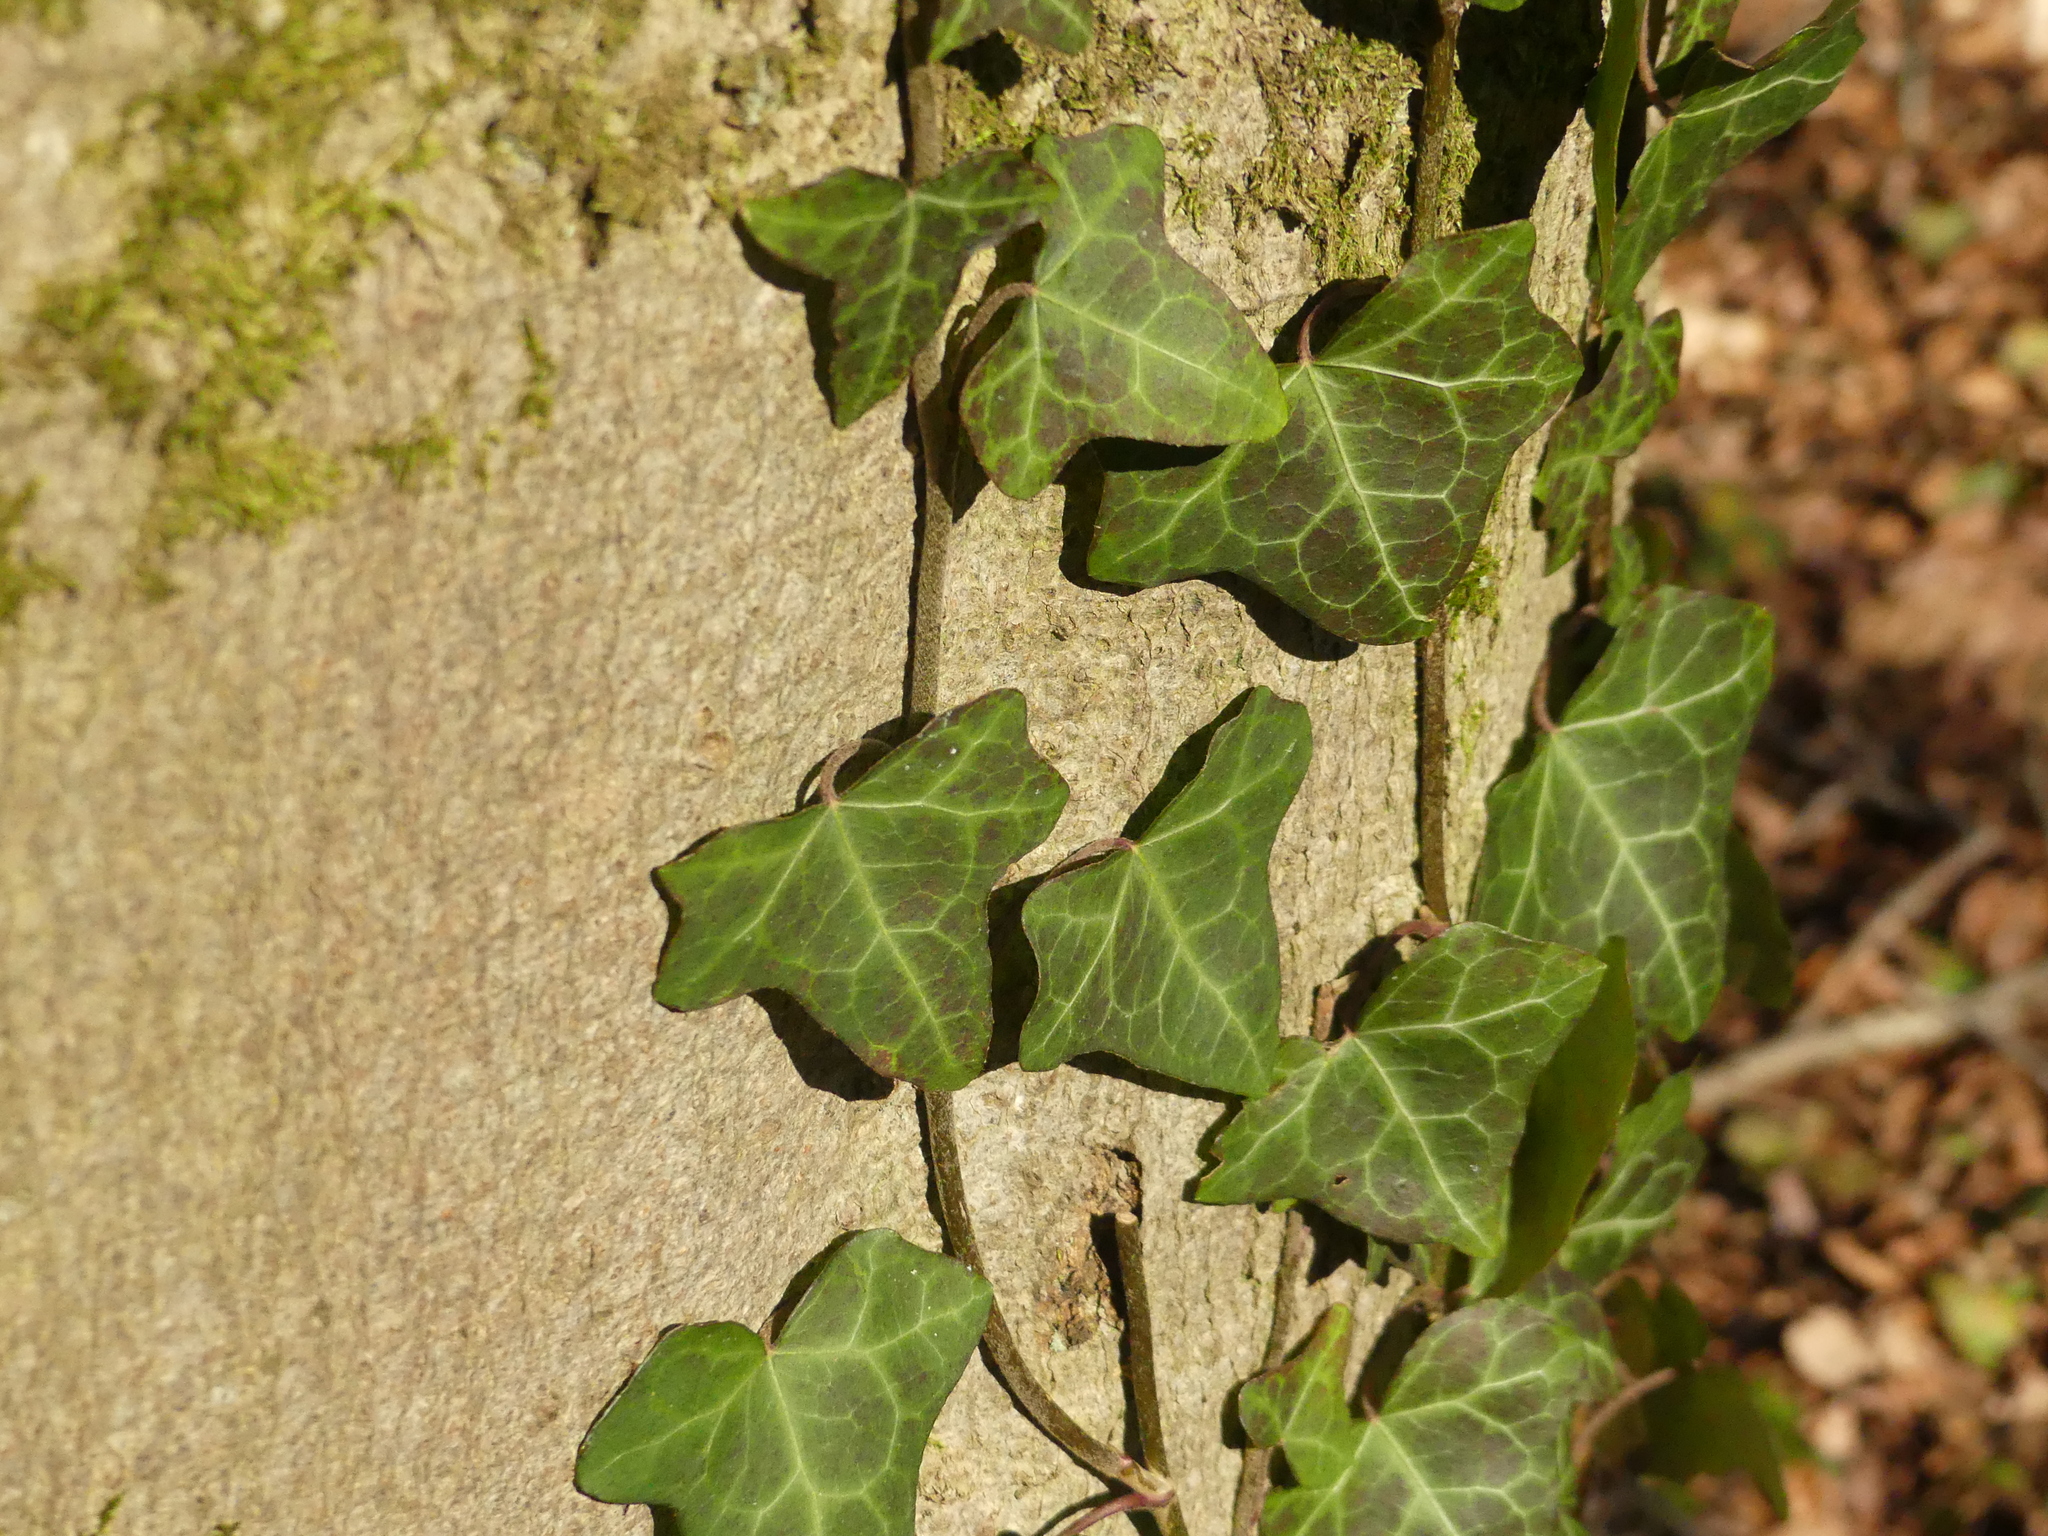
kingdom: Plantae
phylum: Tracheophyta
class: Magnoliopsida
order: Apiales
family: Araliaceae
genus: Hedera
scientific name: Hedera helix
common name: Ivy
